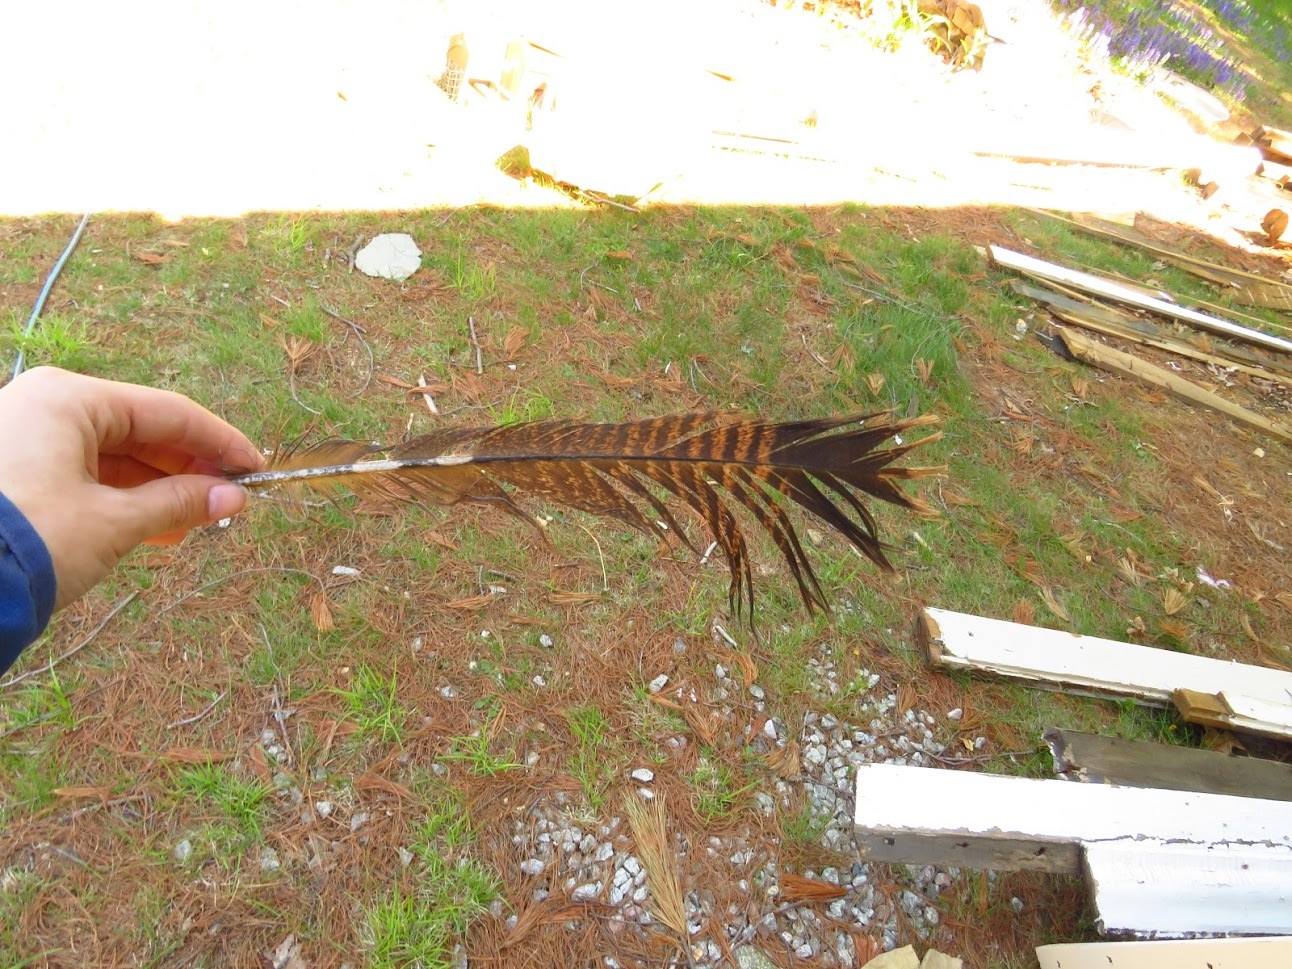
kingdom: Animalia
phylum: Chordata
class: Aves
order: Galliformes
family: Phasianidae
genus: Meleagris
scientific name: Meleagris gallopavo
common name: Wild turkey
